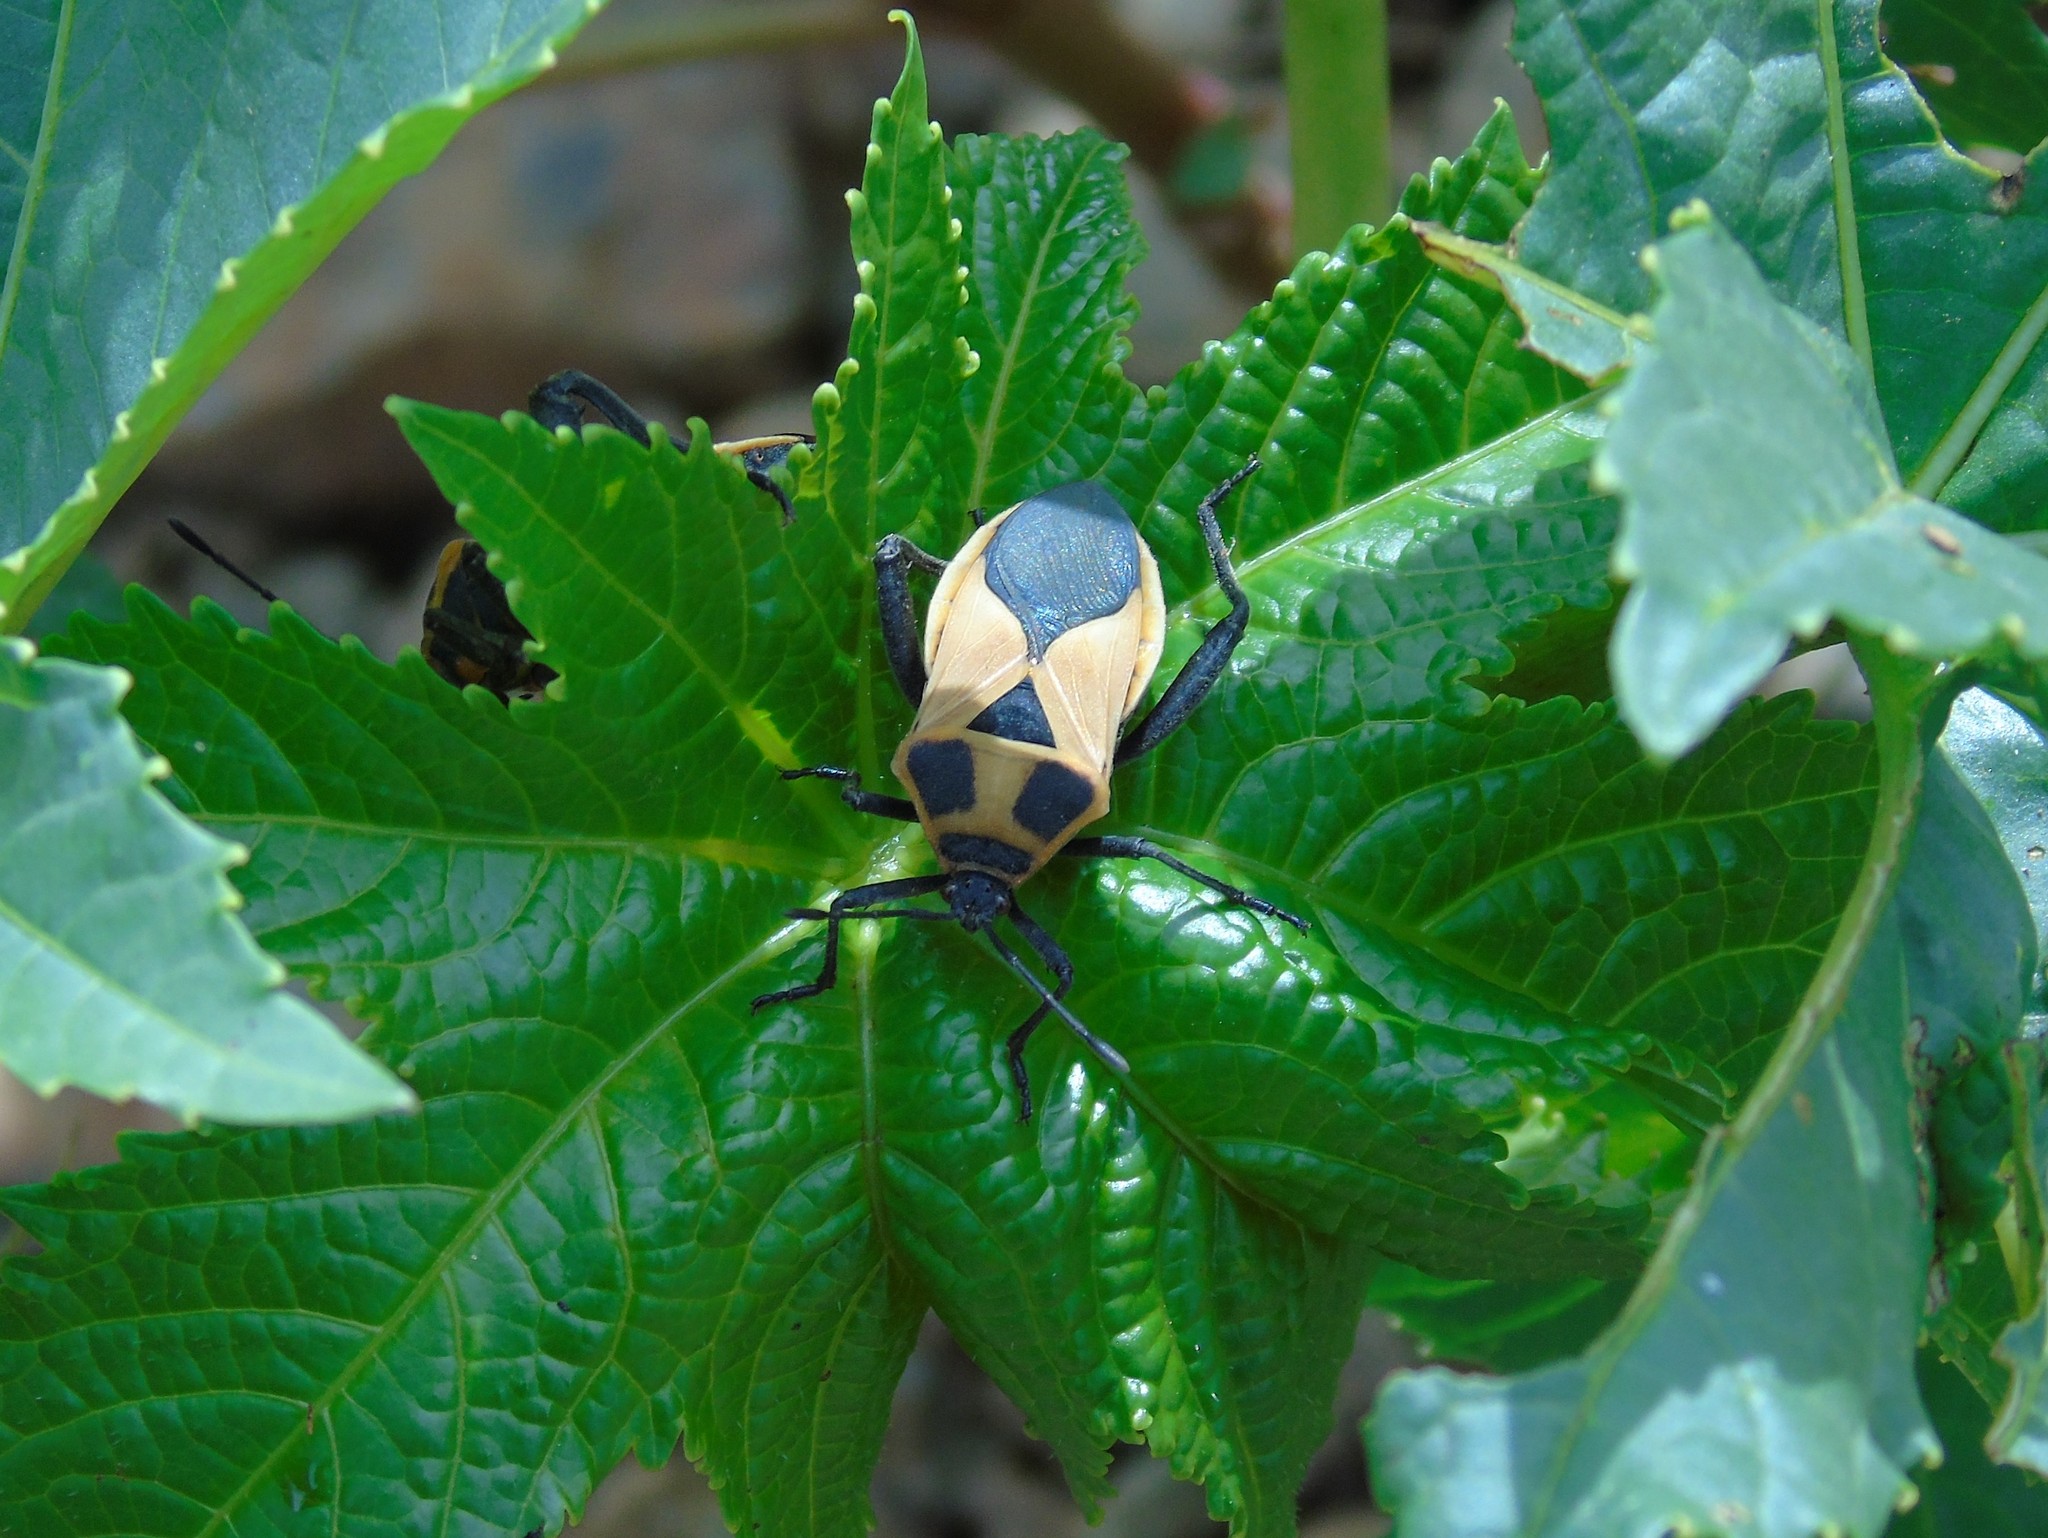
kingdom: Animalia
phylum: Arthropoda
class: Insecta
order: Hemiptera
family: Coreidae
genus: Sagotylus
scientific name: Sagotylus confluens
